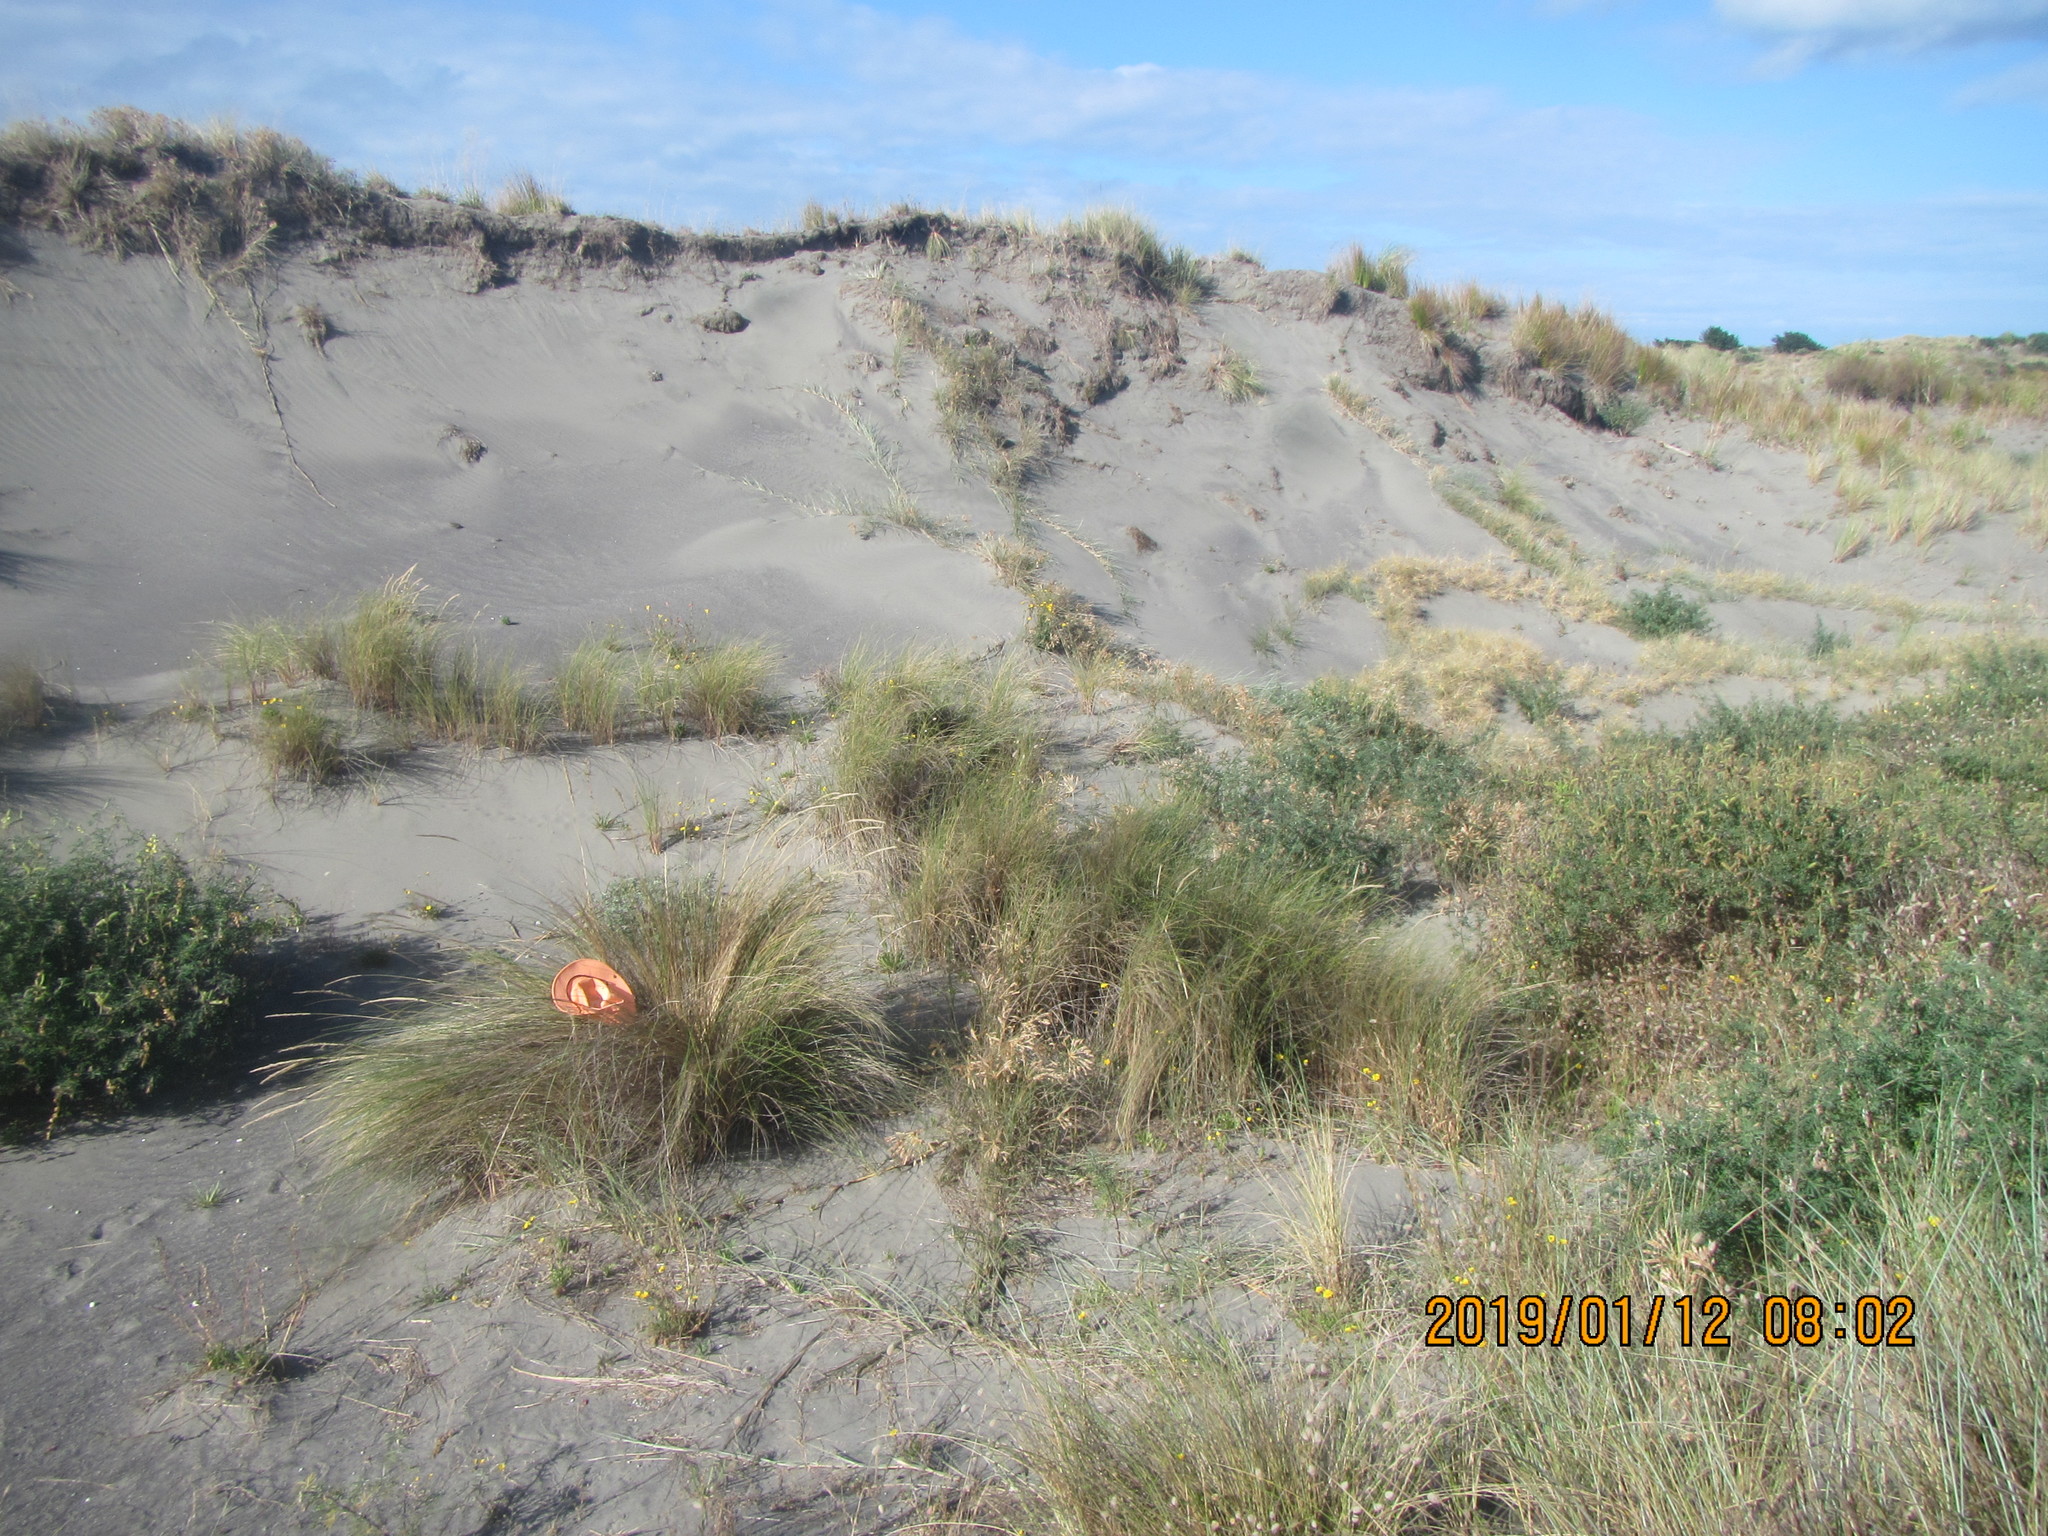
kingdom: Animalia
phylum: Mollusca
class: Gastropoda
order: Stylommatophora
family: Helicidae
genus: Cornu
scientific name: Cornu aspersum
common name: Brown garden snail
